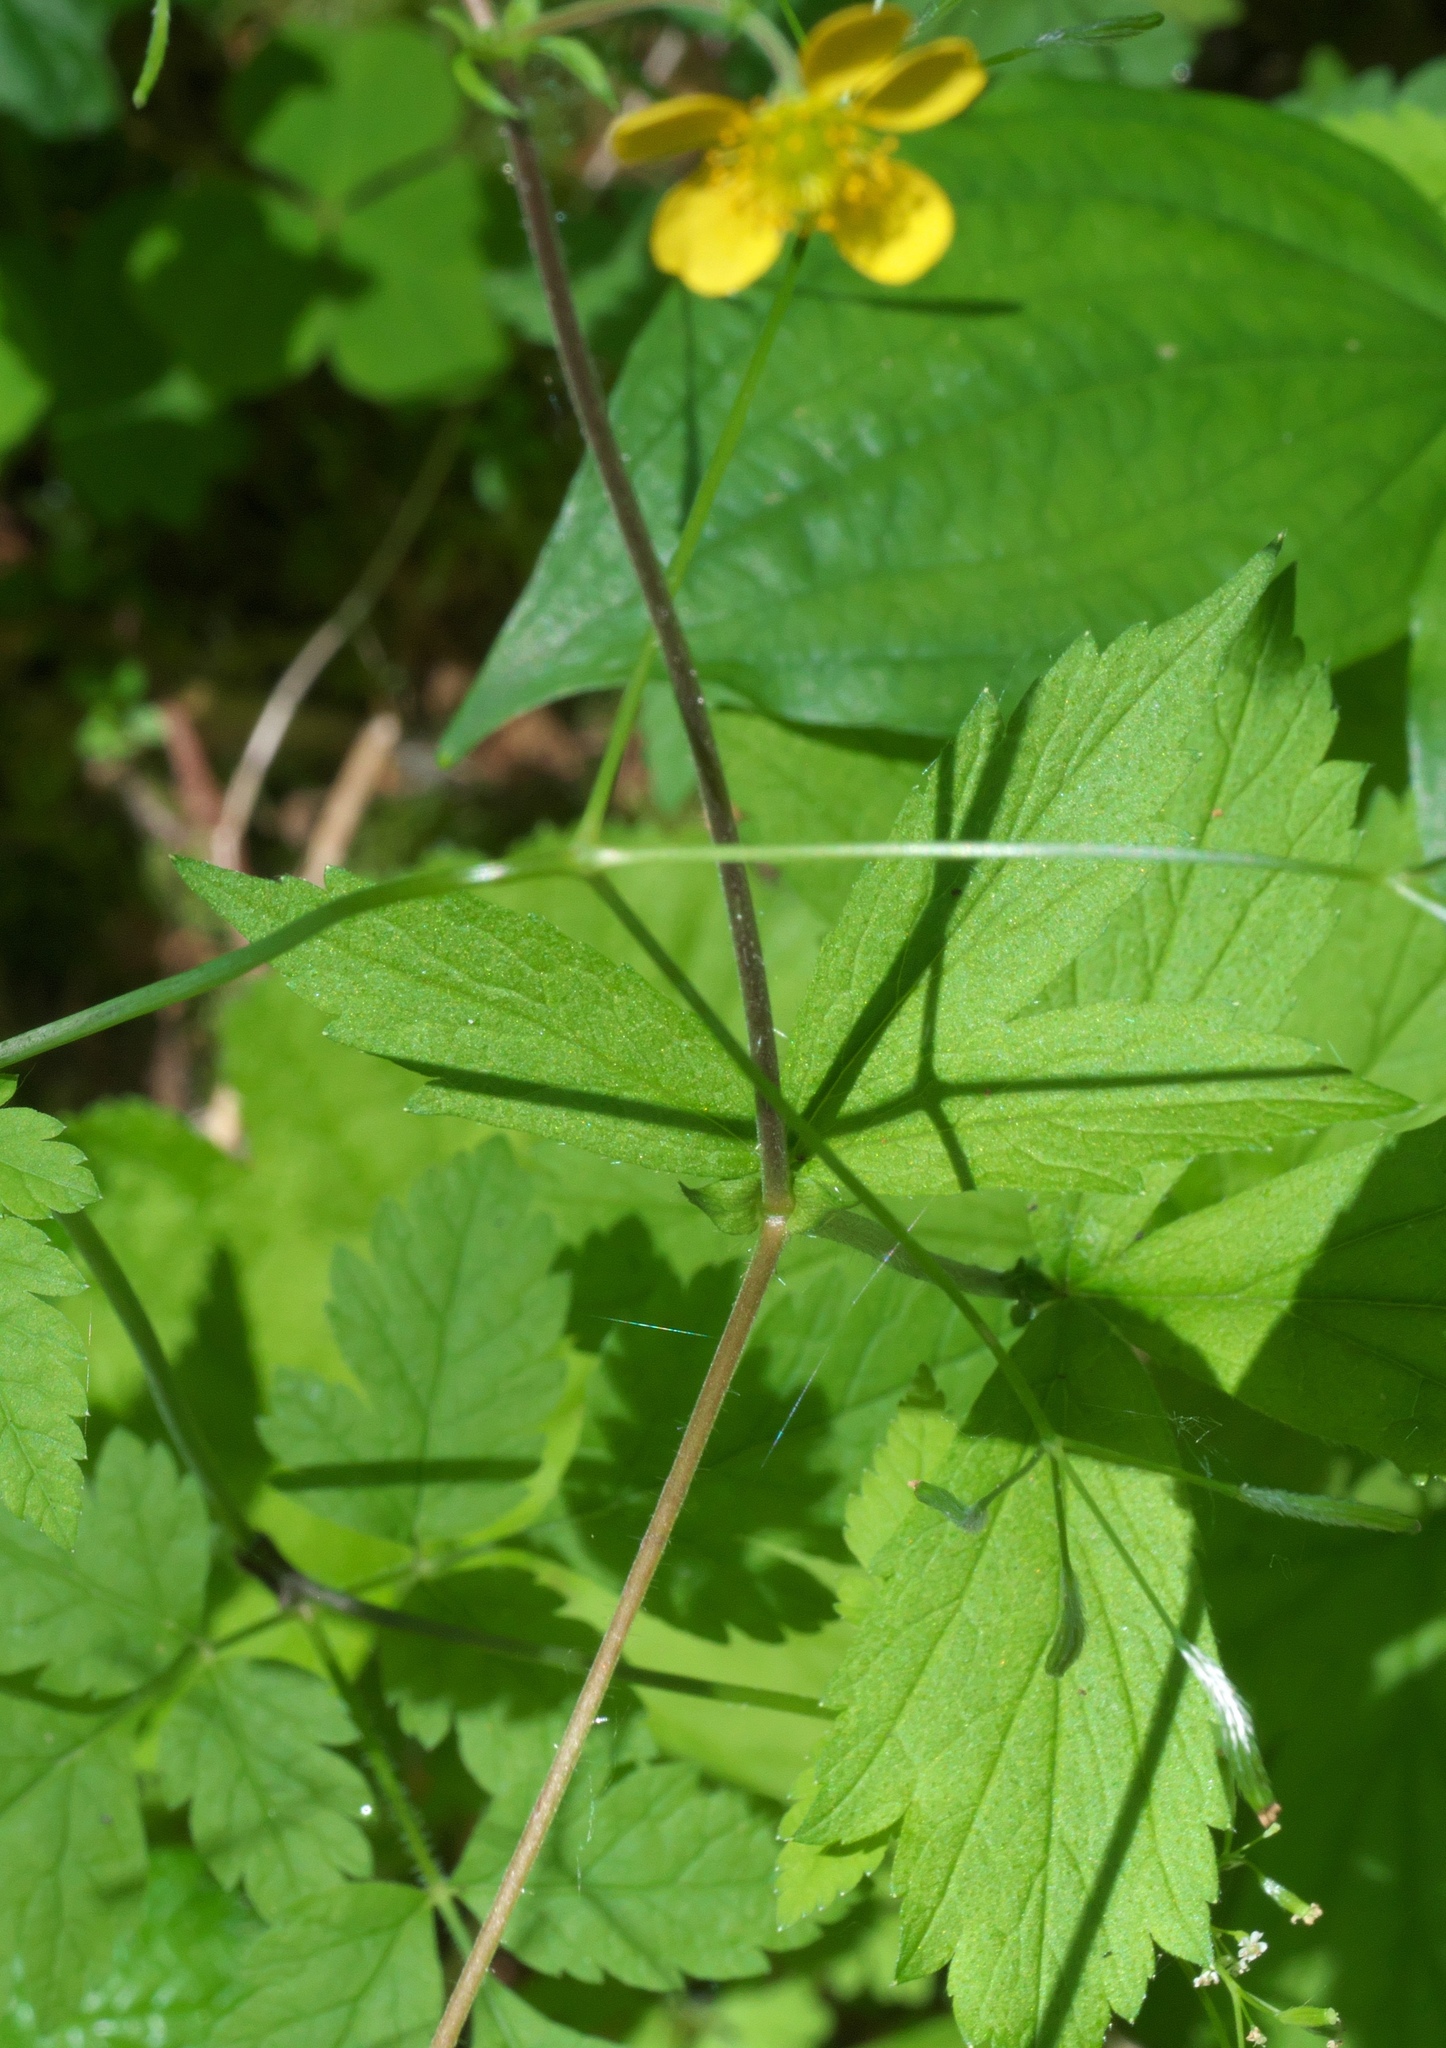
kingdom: Plantae
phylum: Tracheophyta
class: Magnoliopsida
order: Rosales
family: Rosaceae
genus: Geum
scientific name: Geum macrophyllum
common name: Large-leaved avens
